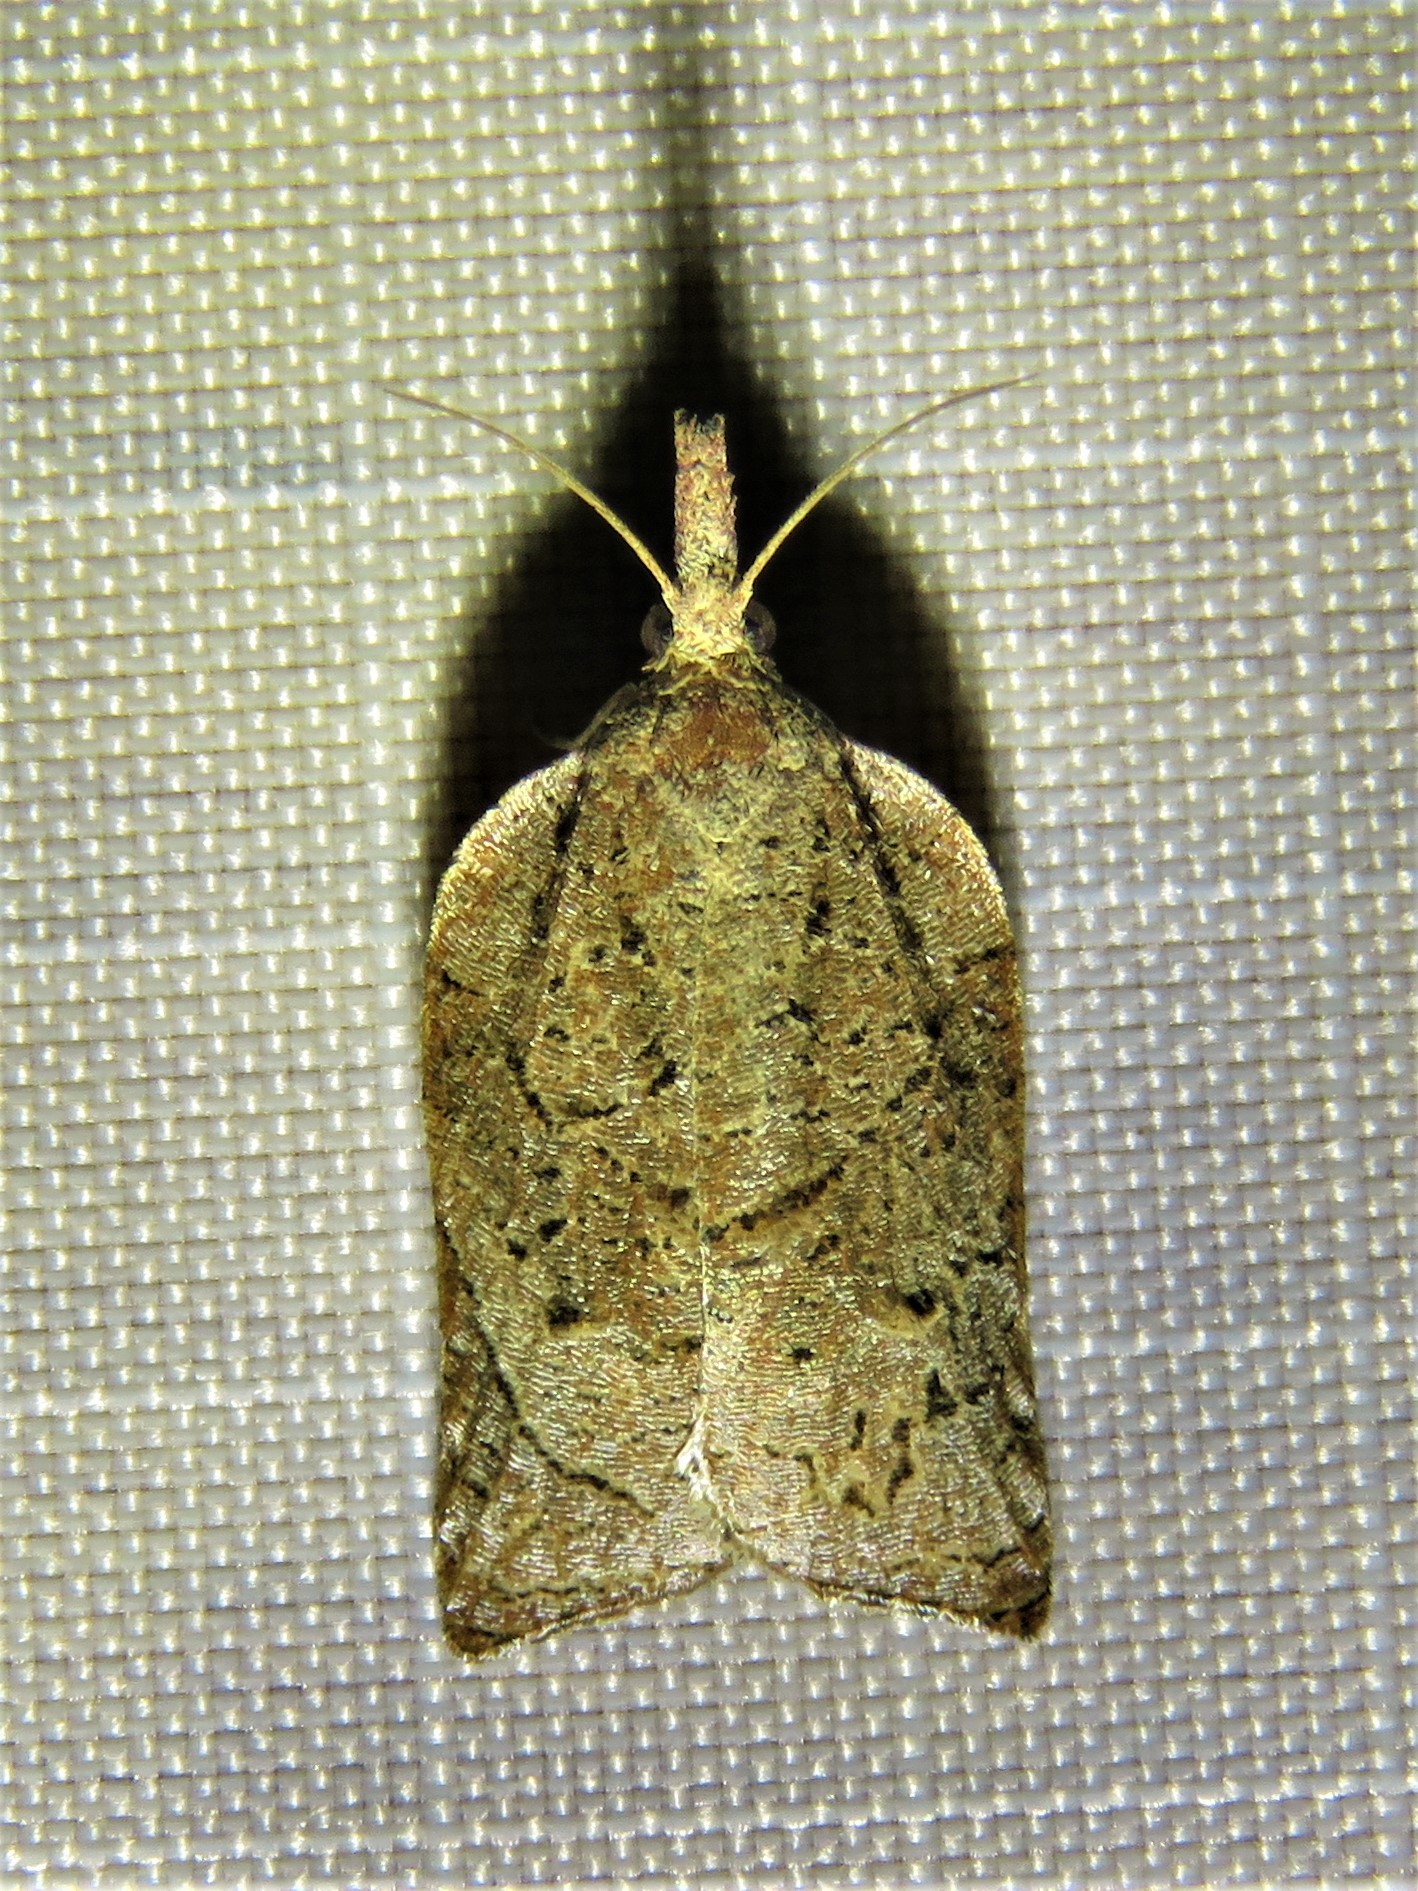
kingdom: Animalia
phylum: Arthropoda
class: Insecta
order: Lepidoptera
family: Tortricidae
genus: Platynota
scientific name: Platynota rostrana
